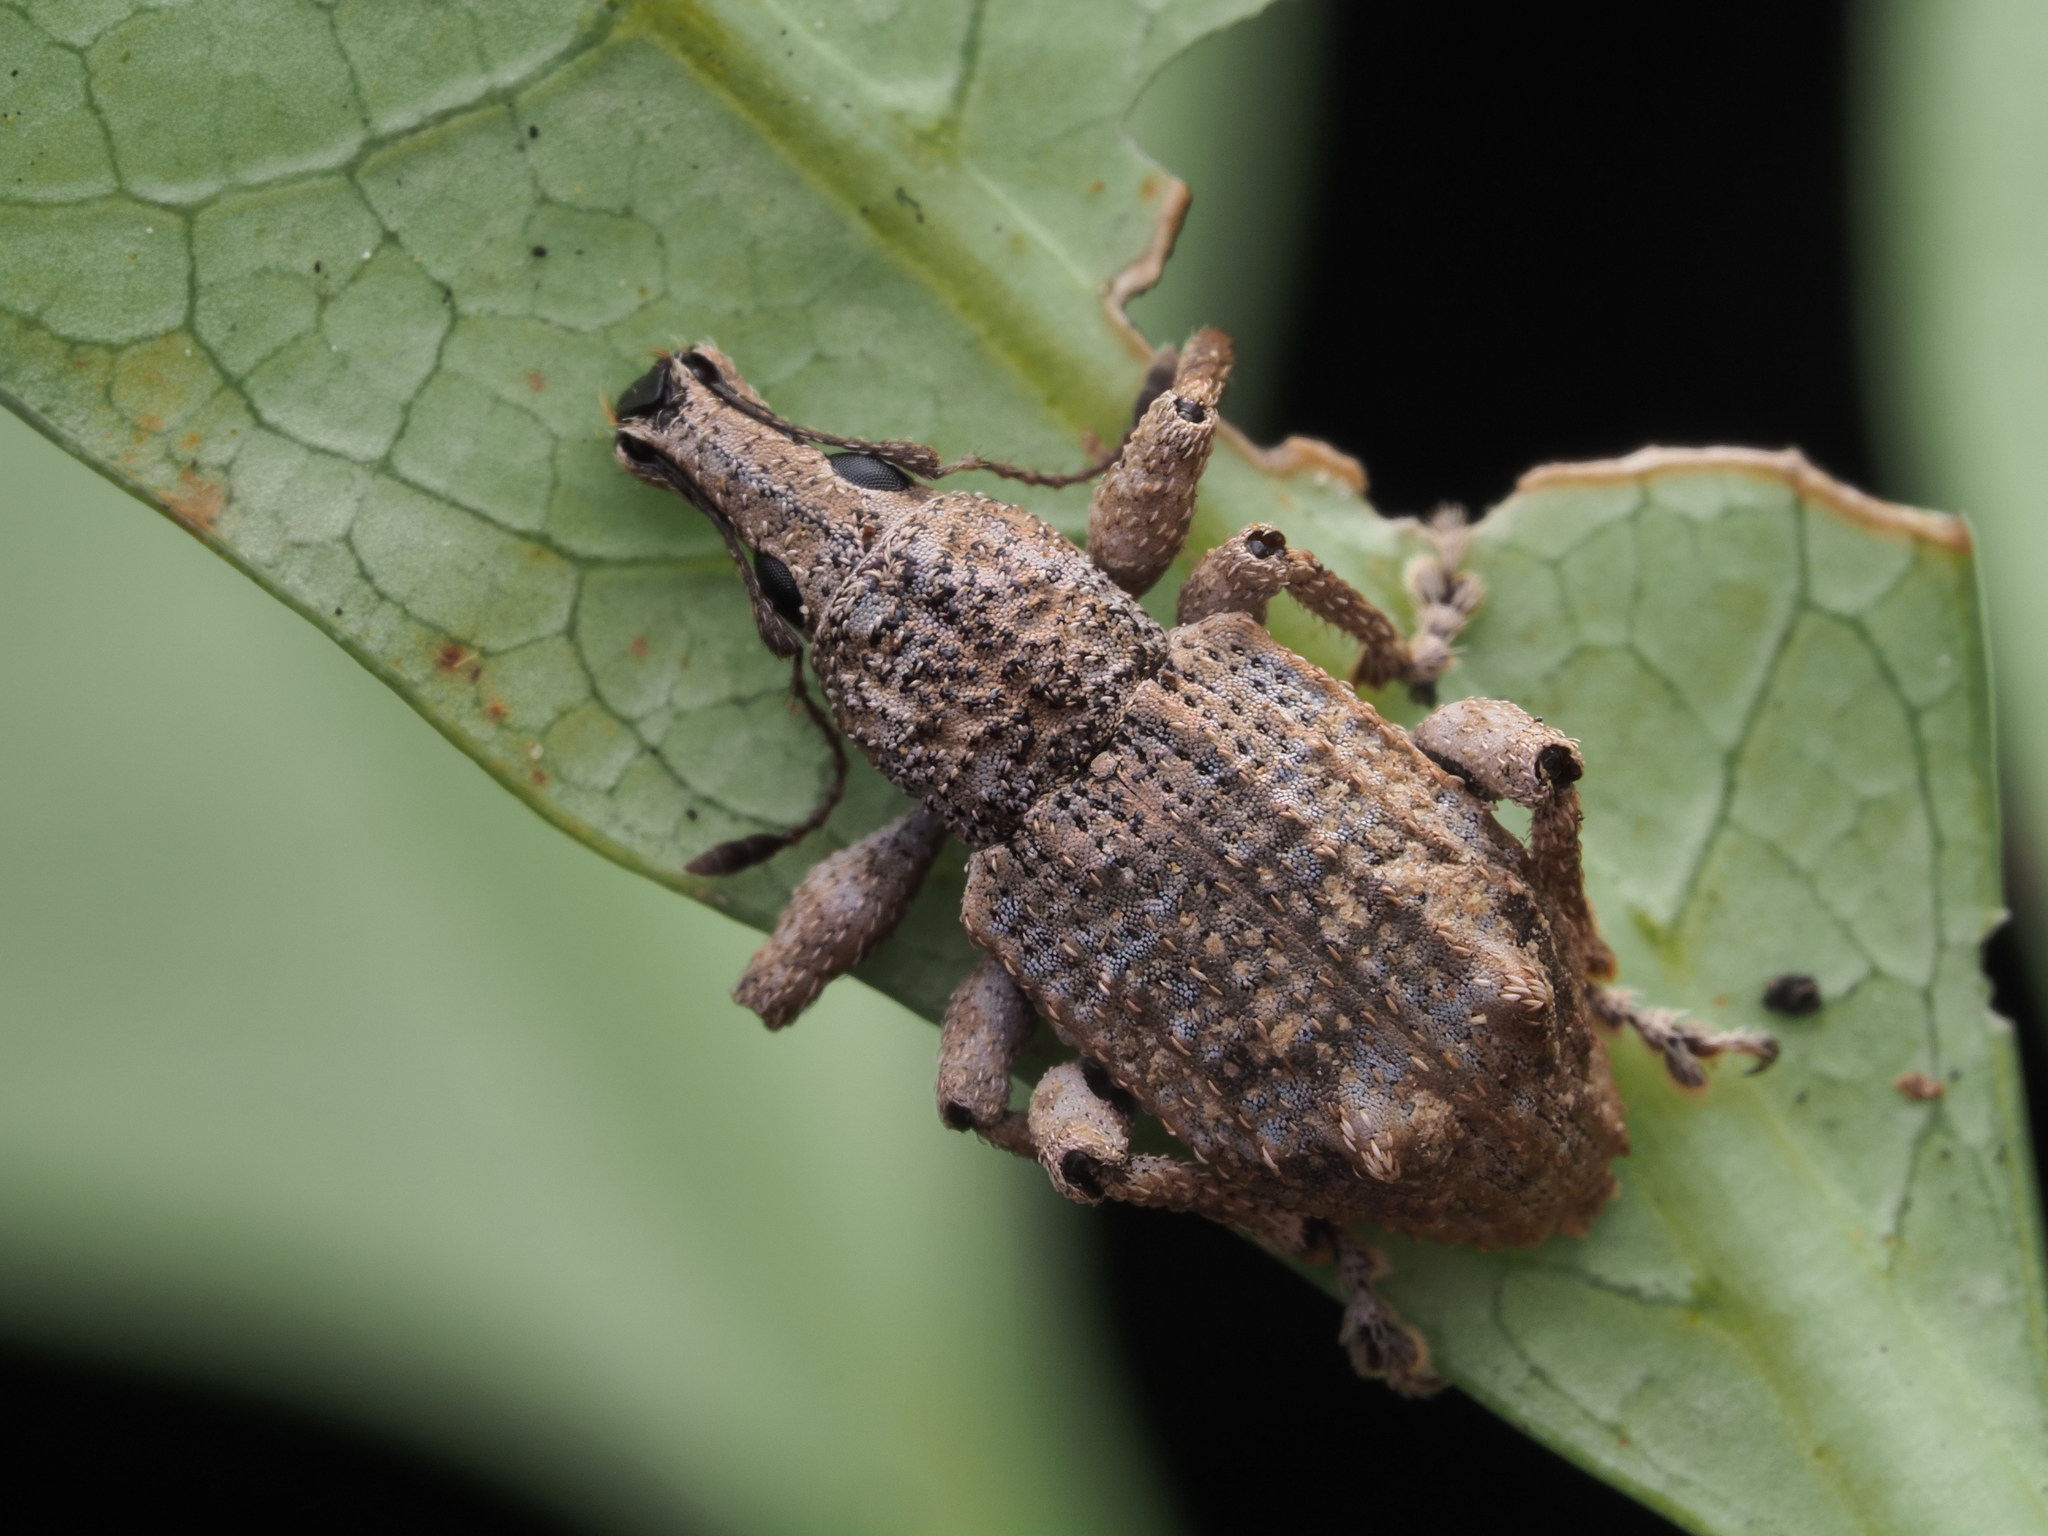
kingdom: Animalia
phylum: Arthropoda
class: Insecta
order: Coleoptera
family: Curculionidae
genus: Catoptes
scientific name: Catoptes binodis
